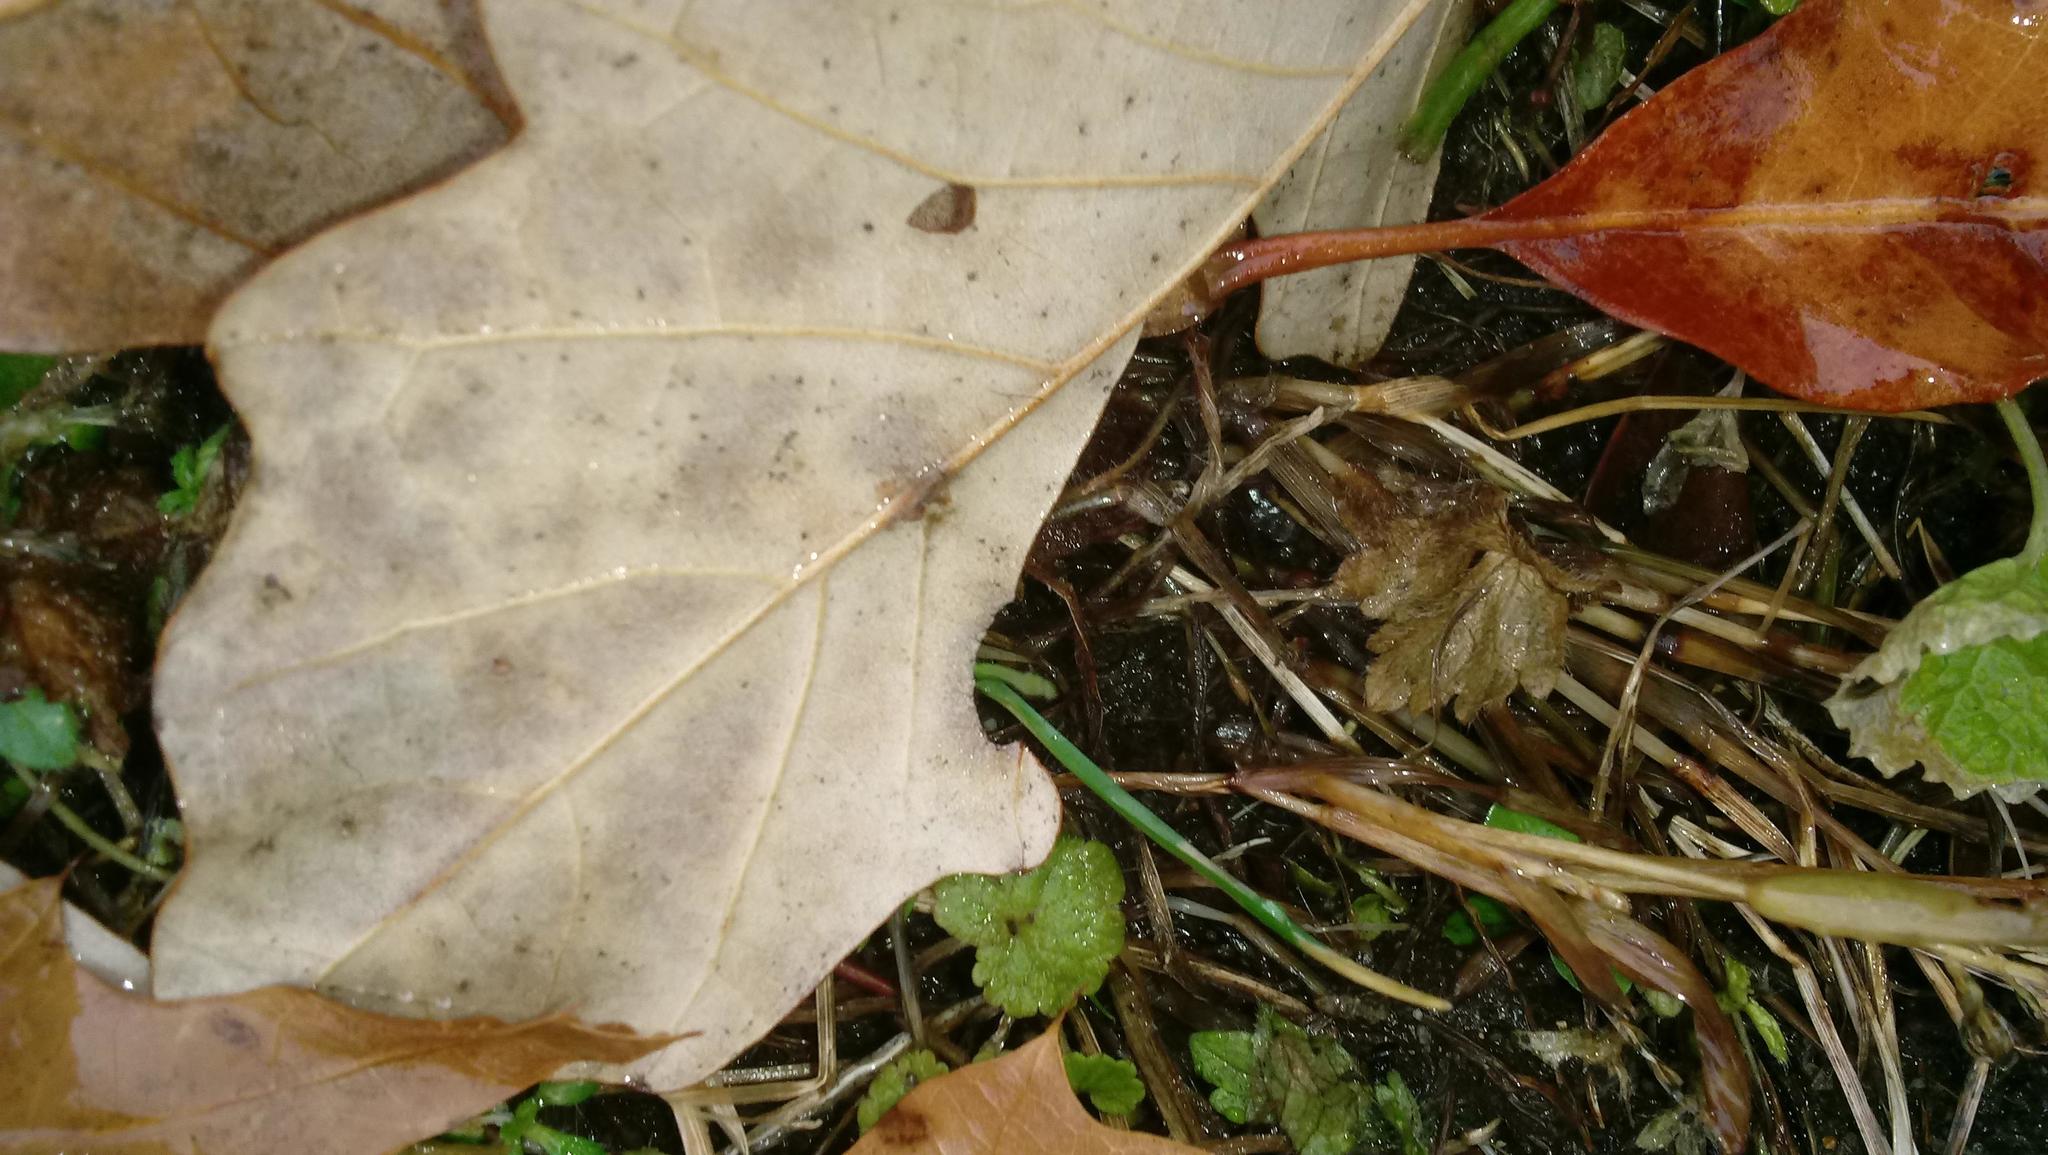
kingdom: Animalia
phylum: Arthropoda
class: Insecta
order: Hymenoptera
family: Cynipidae
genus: Andricus
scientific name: Andricus Druon ignotum
